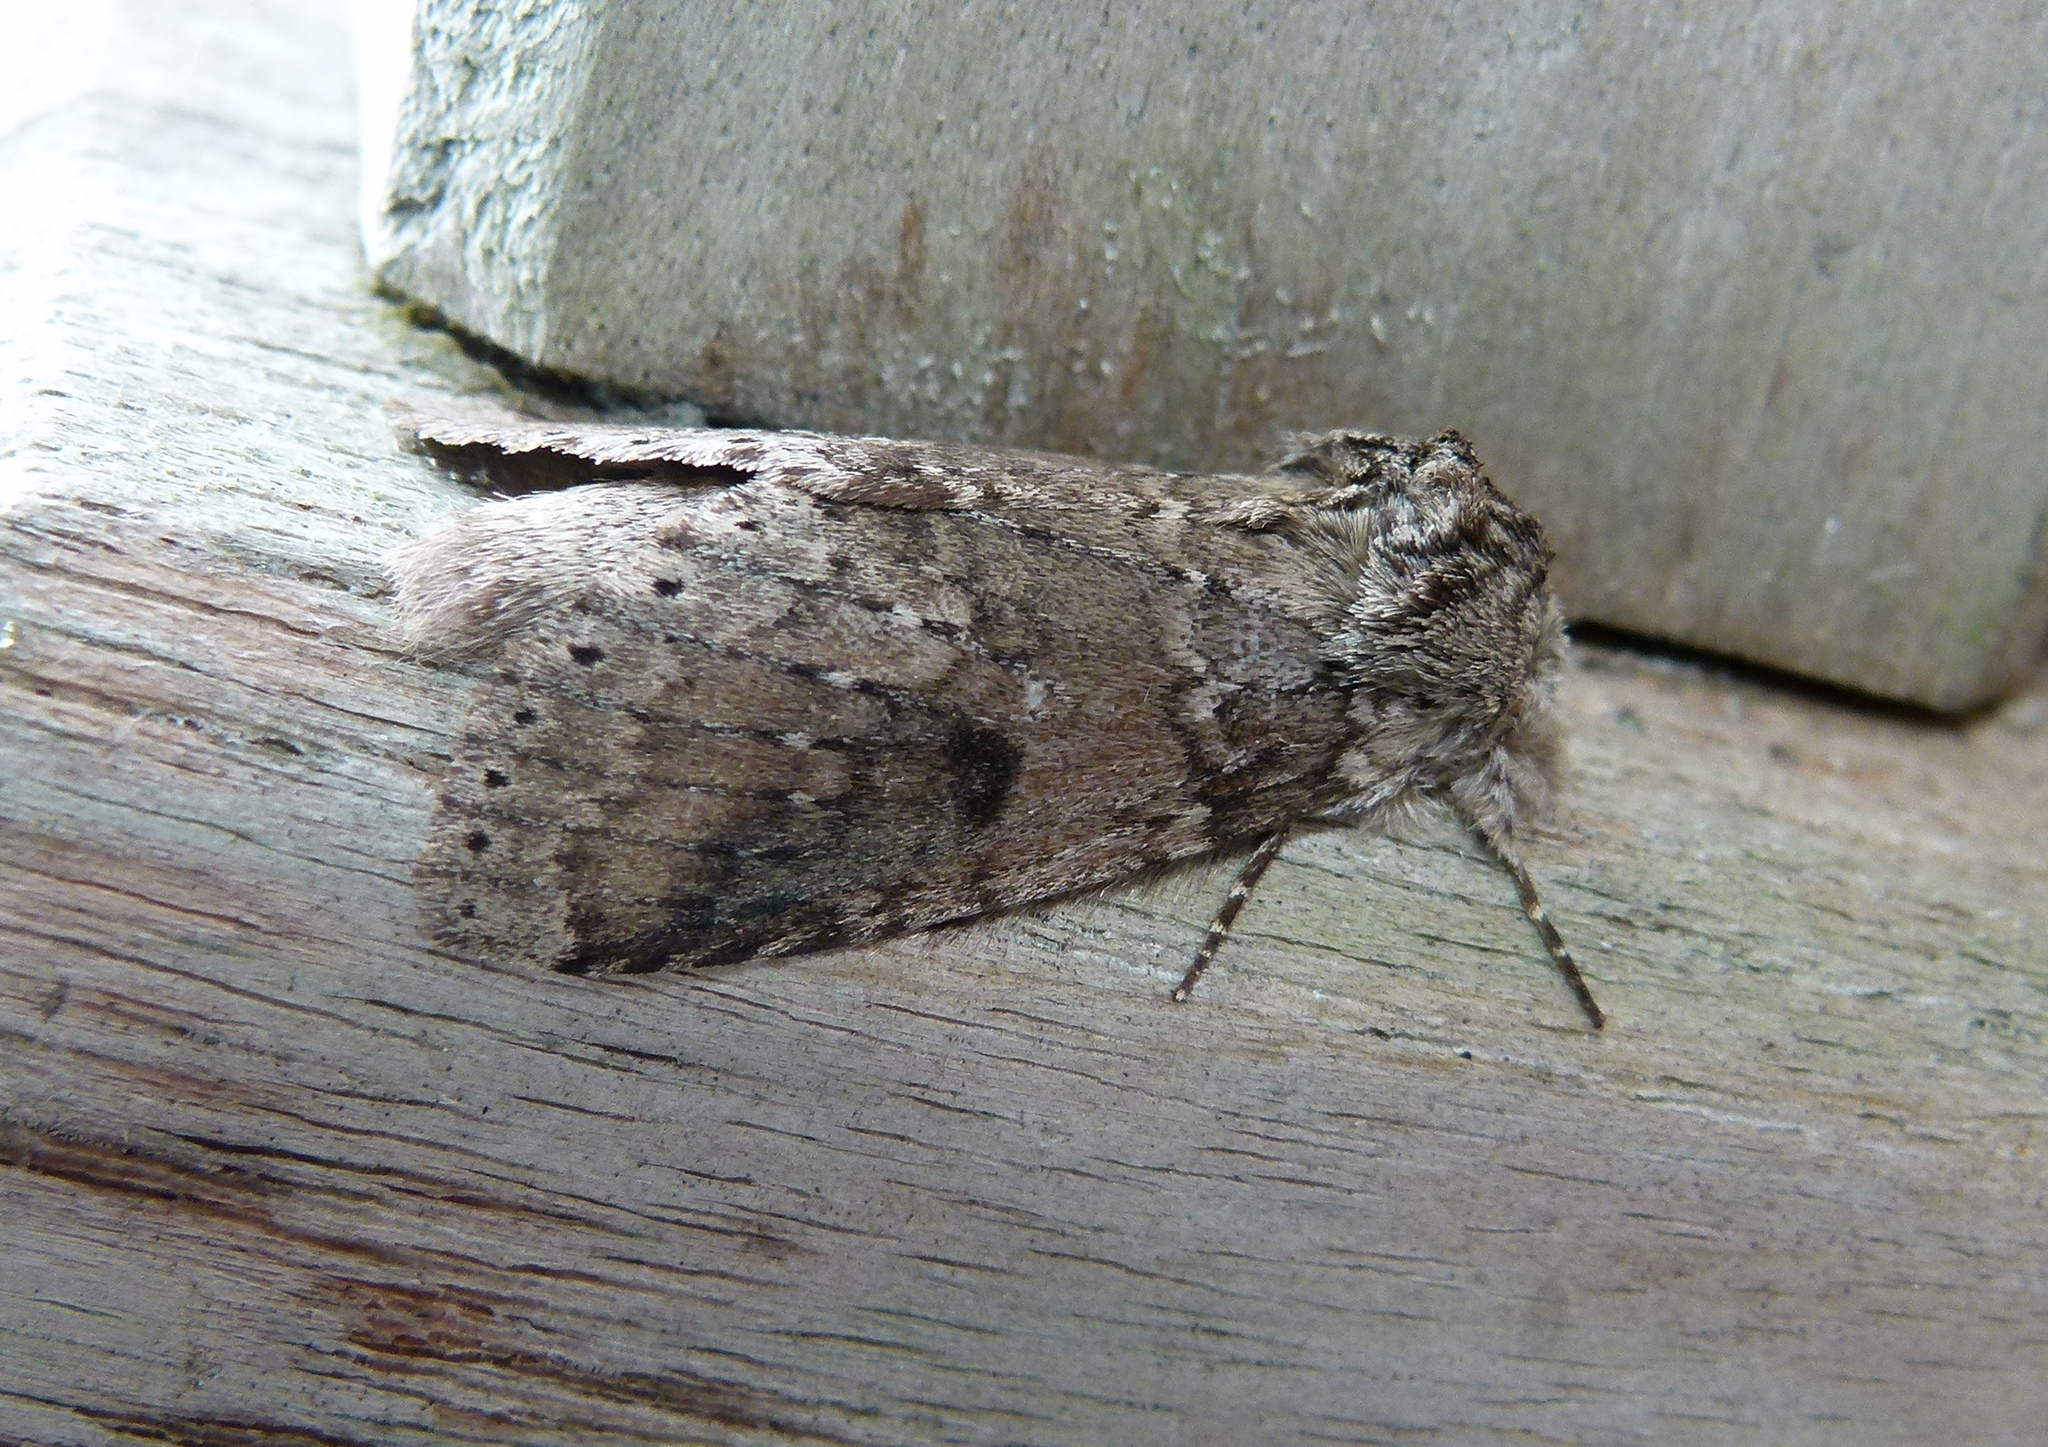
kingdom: Animalia
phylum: Arthropoda
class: Insecta
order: Lepidoptera
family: Notodontidae
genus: Lochmaeus
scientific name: Lochmaeus manteo
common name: Variable oakleaf caterpillar moth
